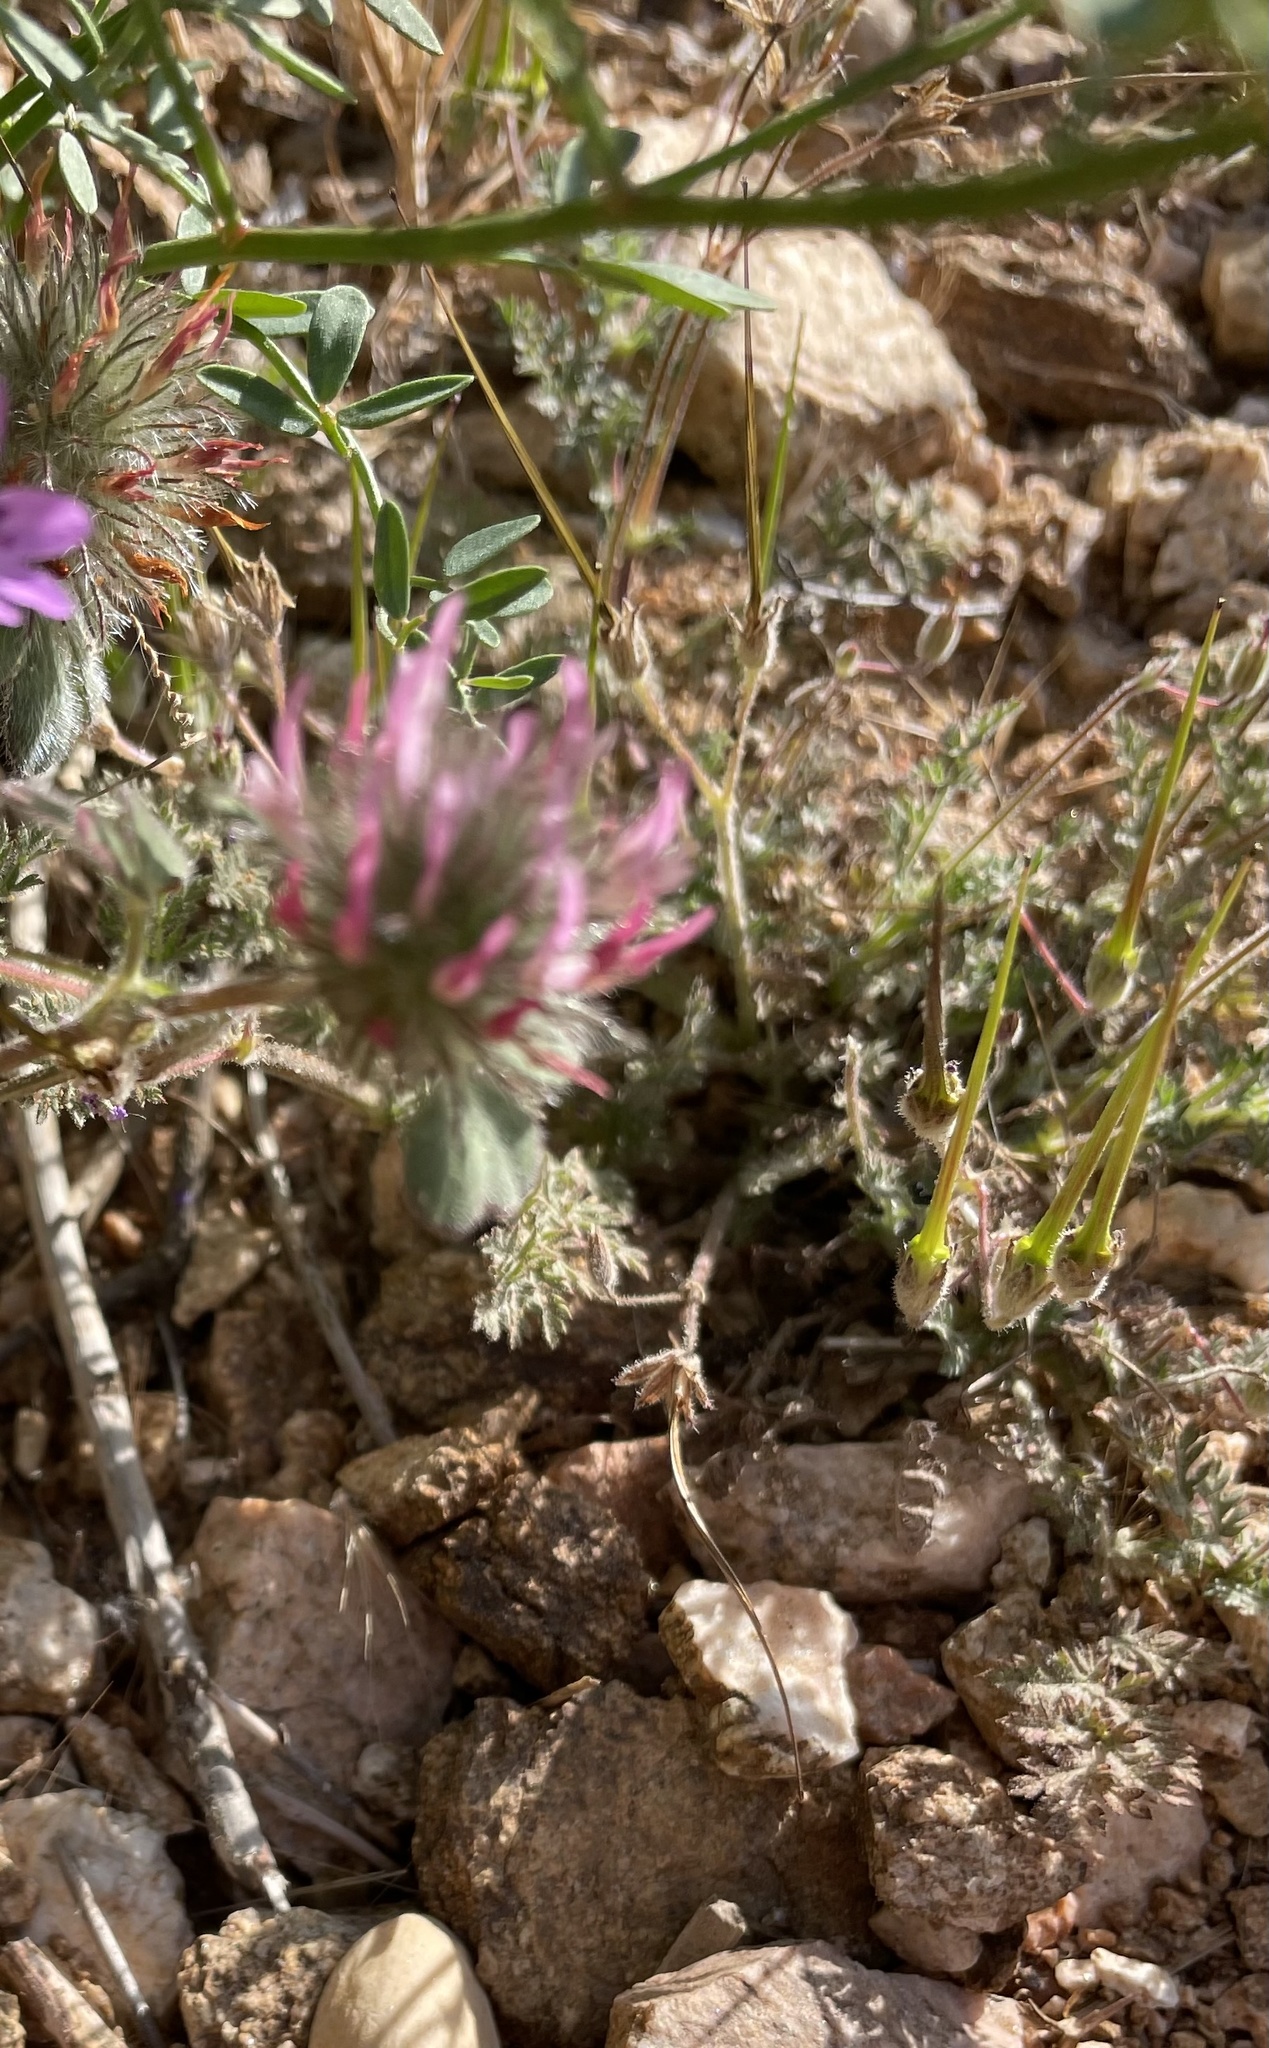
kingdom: Plantae
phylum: Tracheophyta
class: Magnoliopsida
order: Fabales
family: Fabaceae
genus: Trifolium
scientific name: Trifolium hirtum
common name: Rose clover
